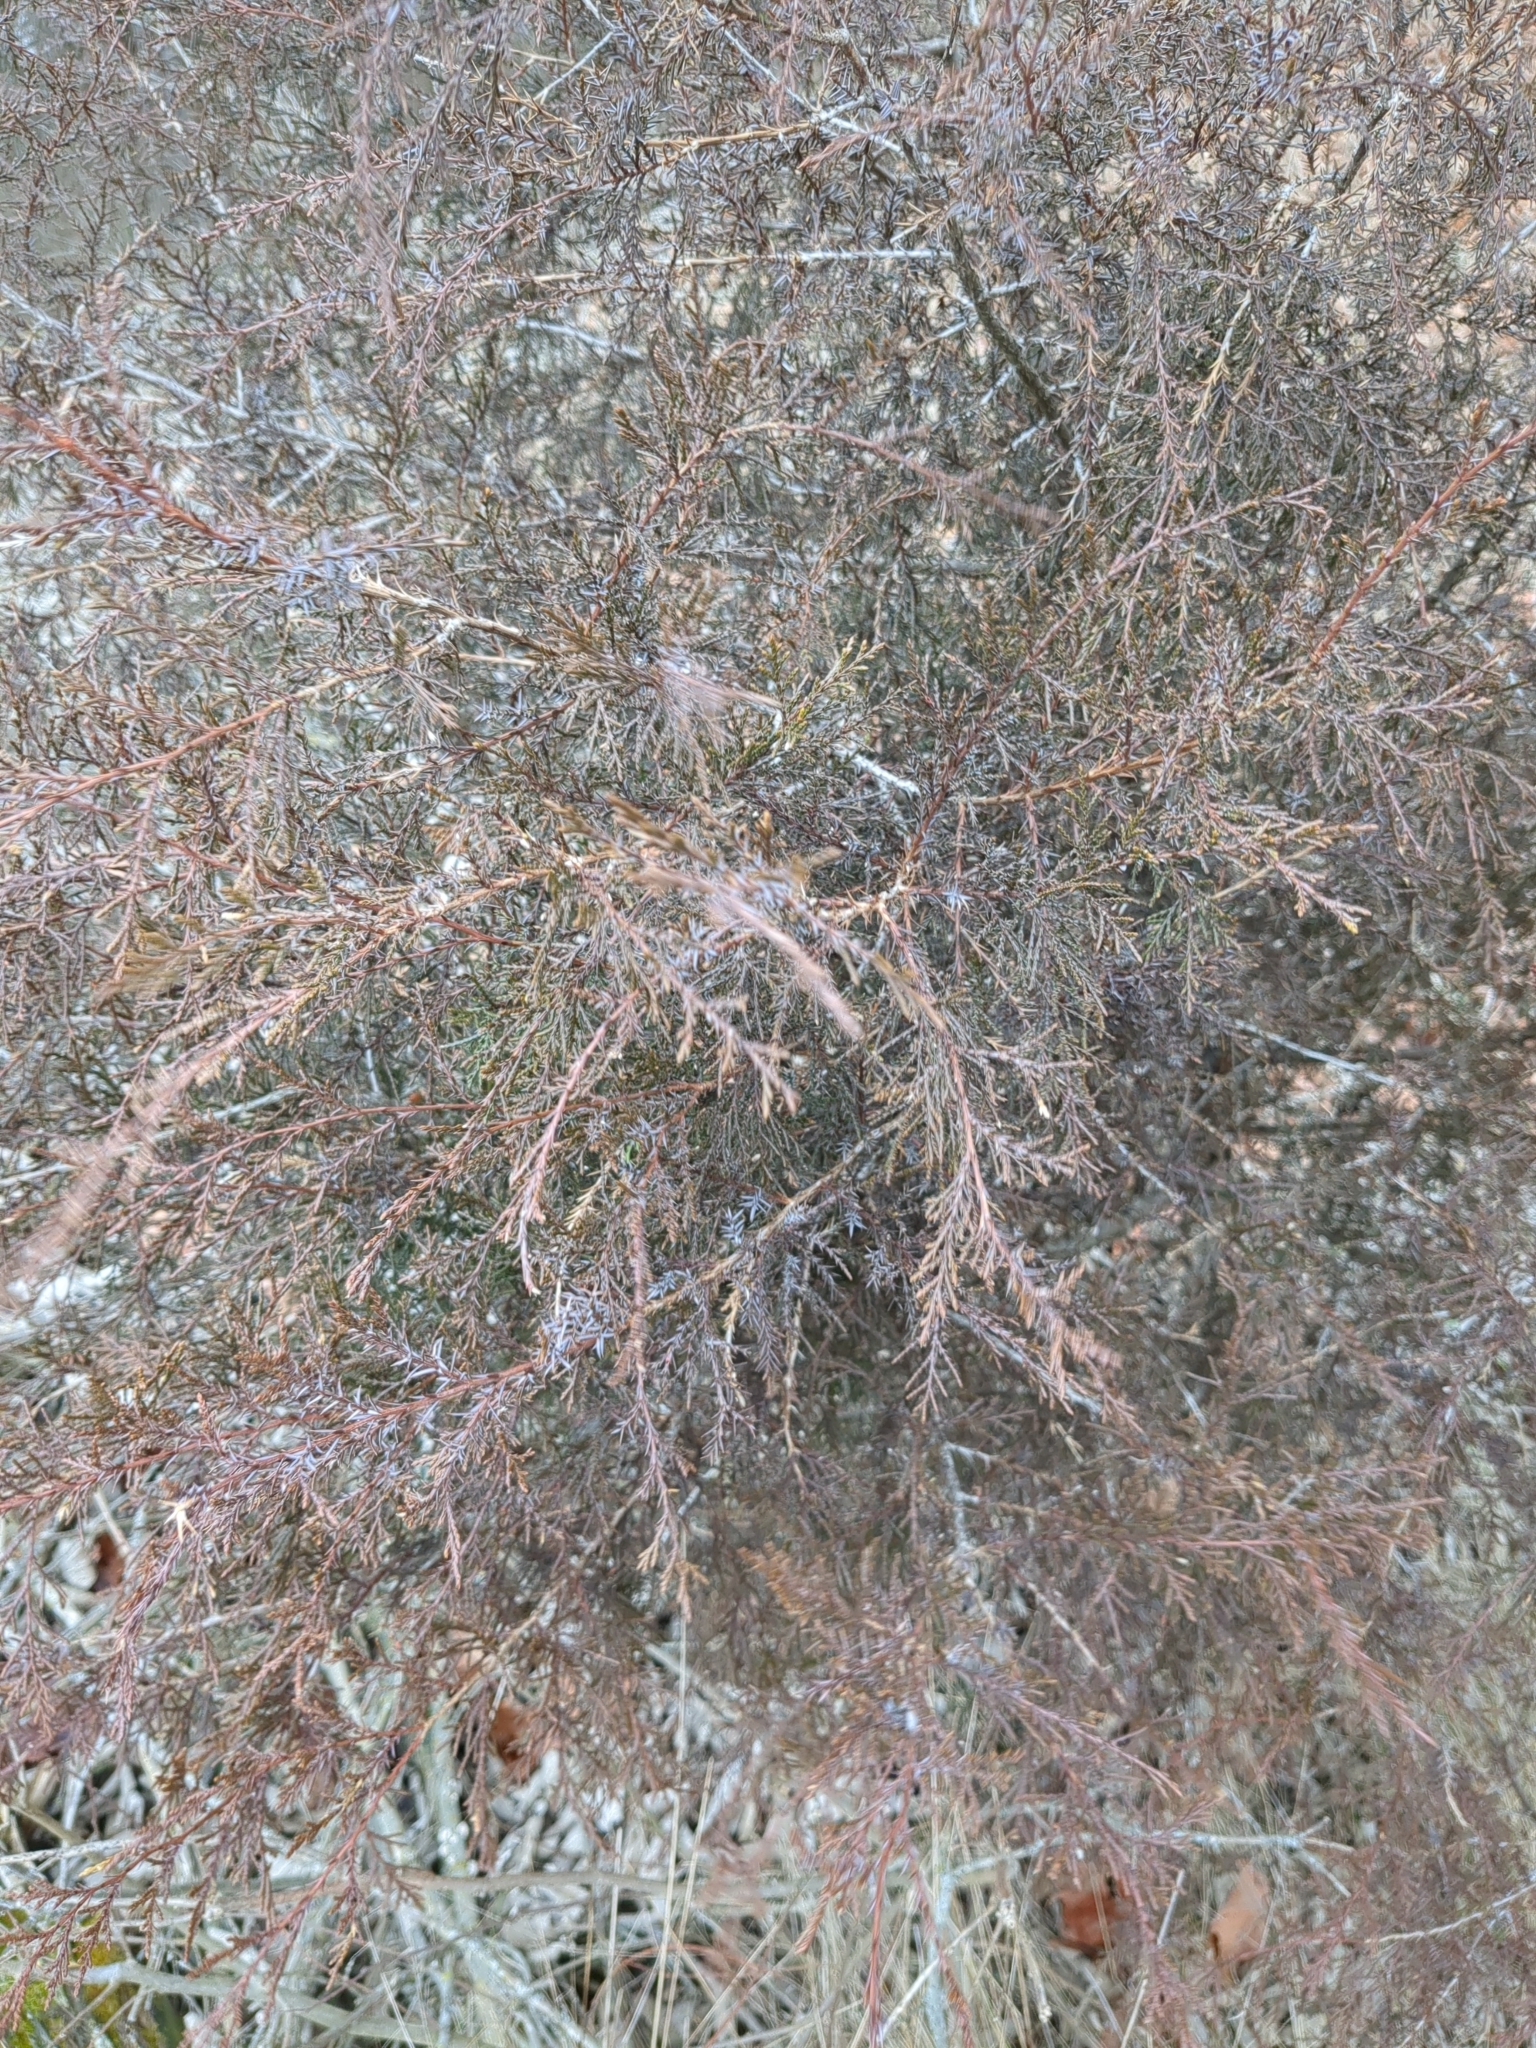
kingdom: Plantae
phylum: Tracheophyta
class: Pinopsida
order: Pinales
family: Cupressaceae
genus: Juniperus
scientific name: Juniperus virginiana
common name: Red juniper
